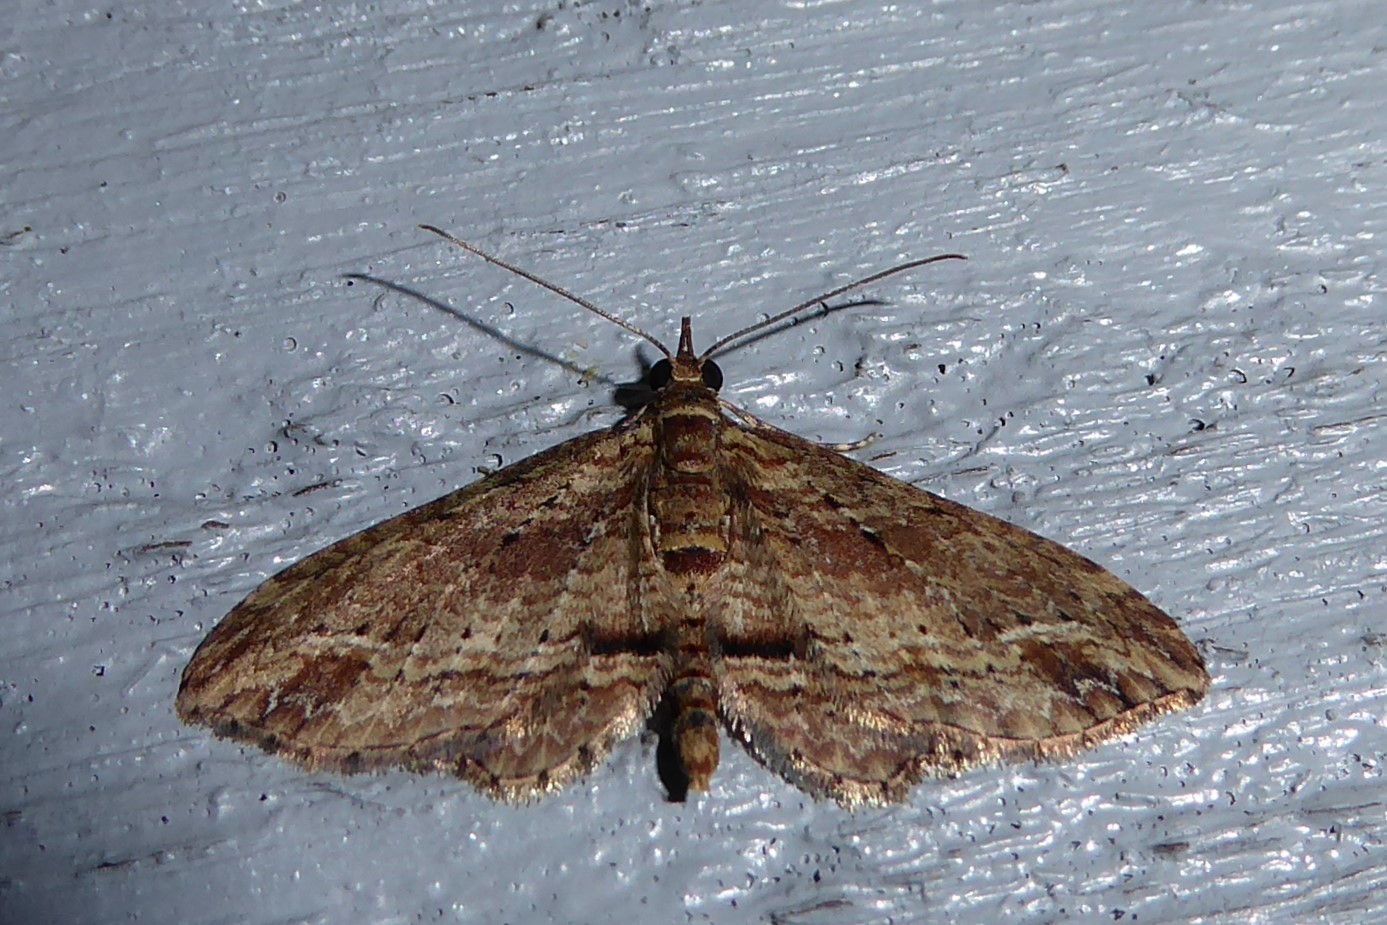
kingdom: Animalia
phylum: Arthropoda
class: Insecta
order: Lepidoptera
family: Geometridae
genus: Chloroclystis
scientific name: Chloroclystis filata
